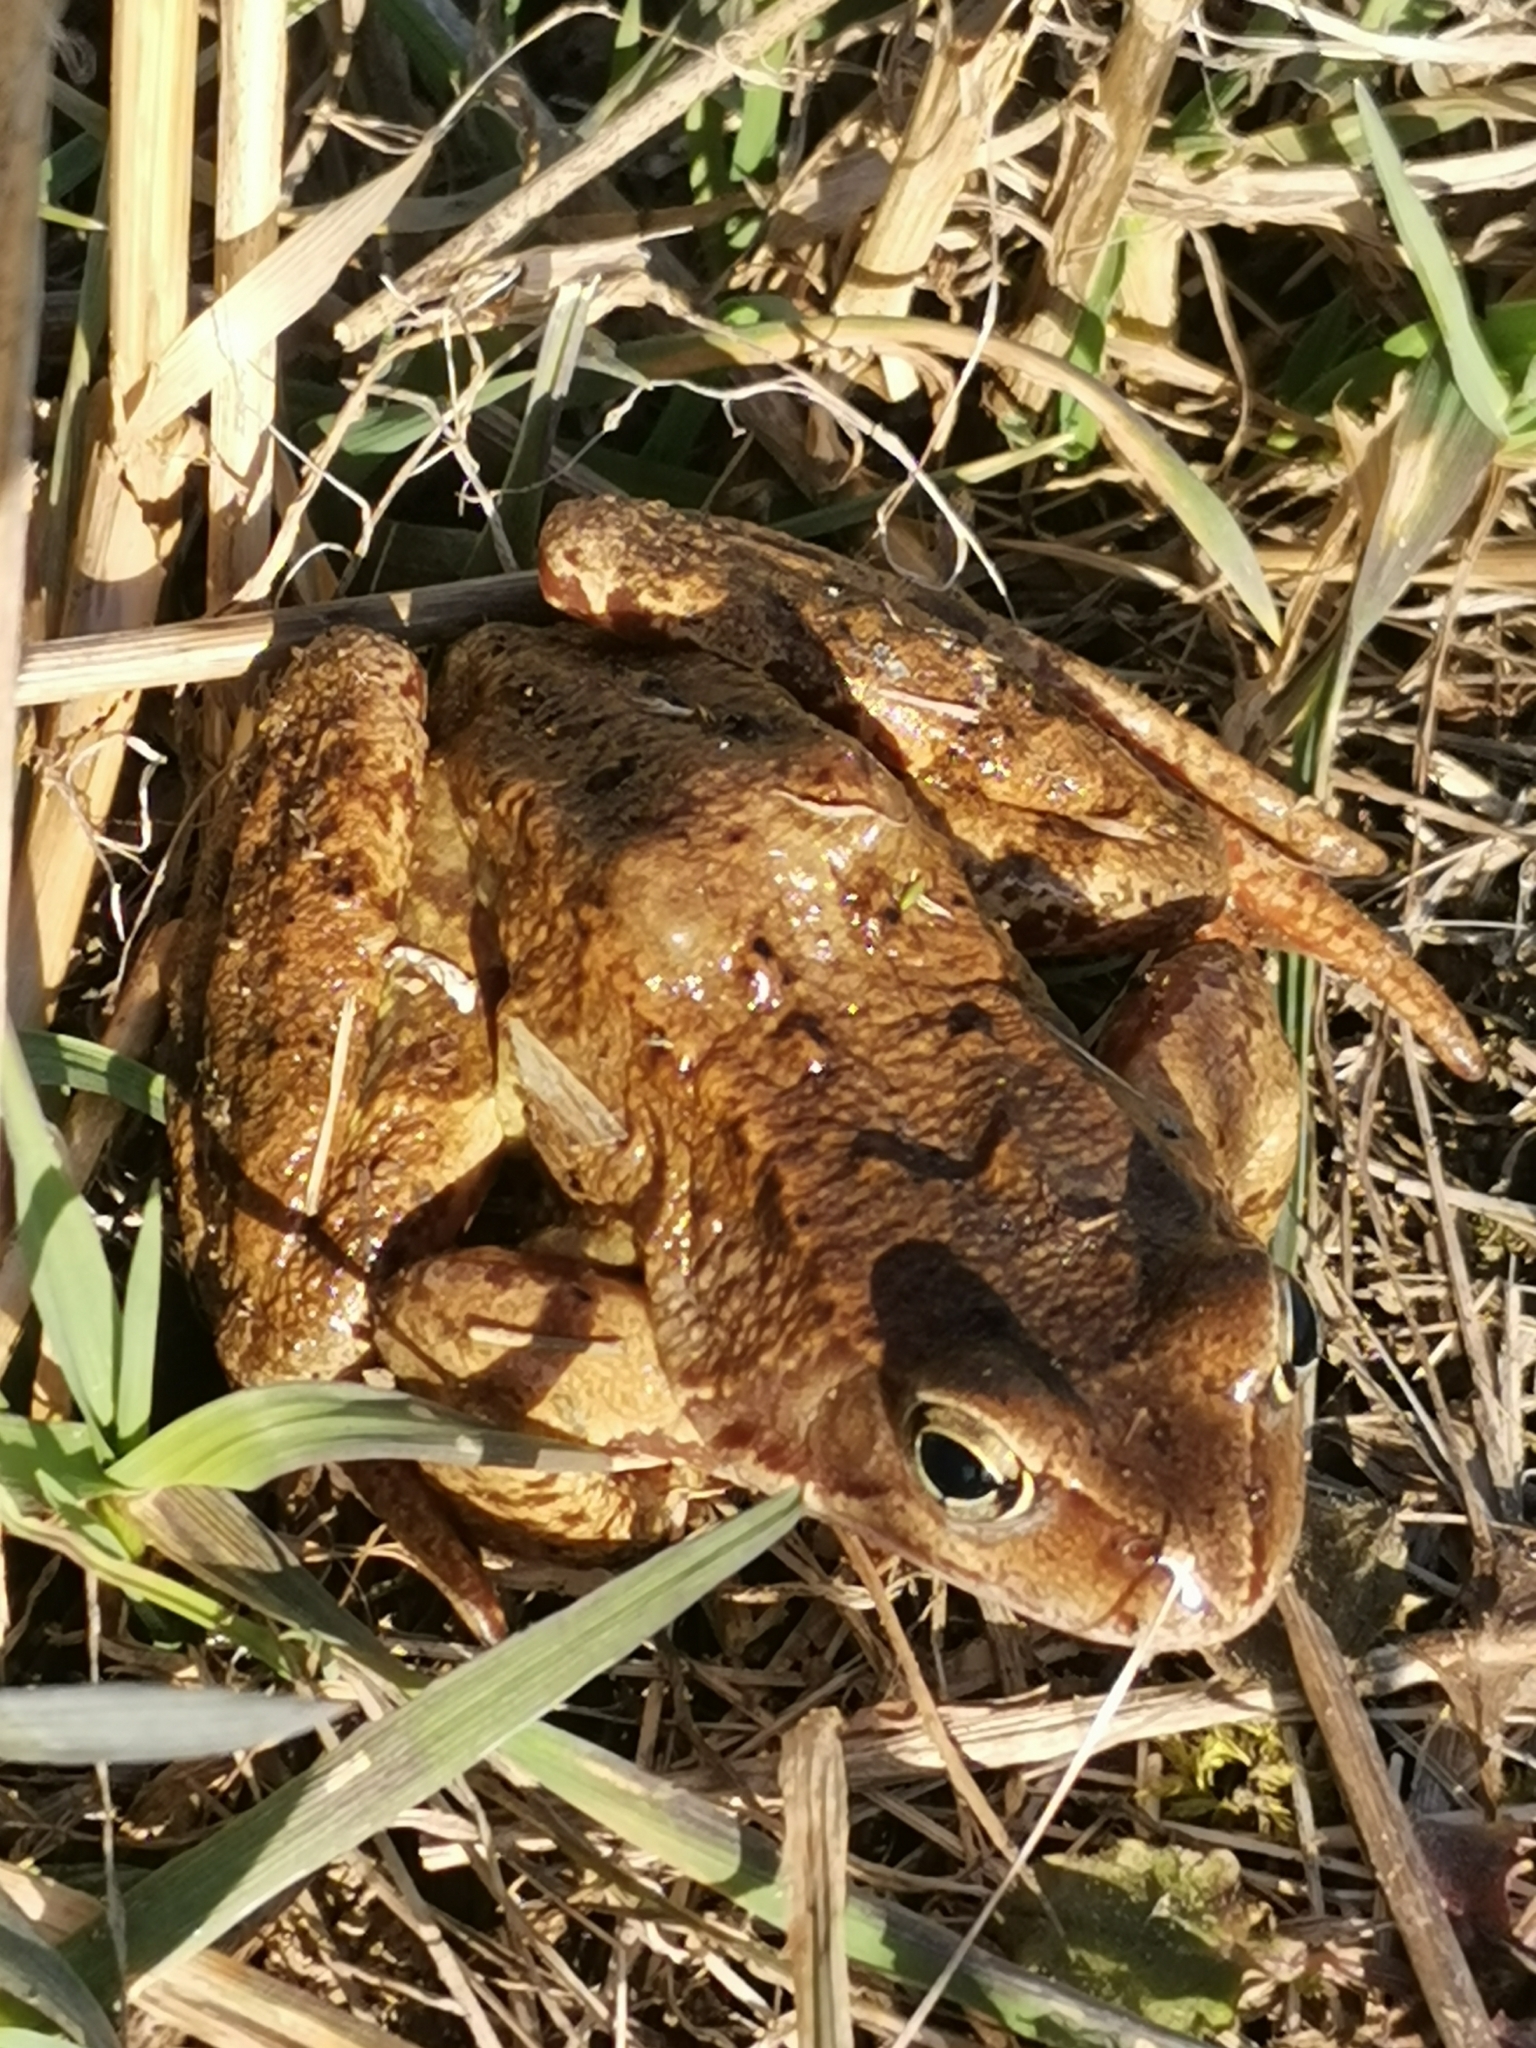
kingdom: Animalia
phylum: Chordata
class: Amphibia
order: Anura
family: Ranidae
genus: Rana
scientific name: Rana temporaria
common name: Common frog
